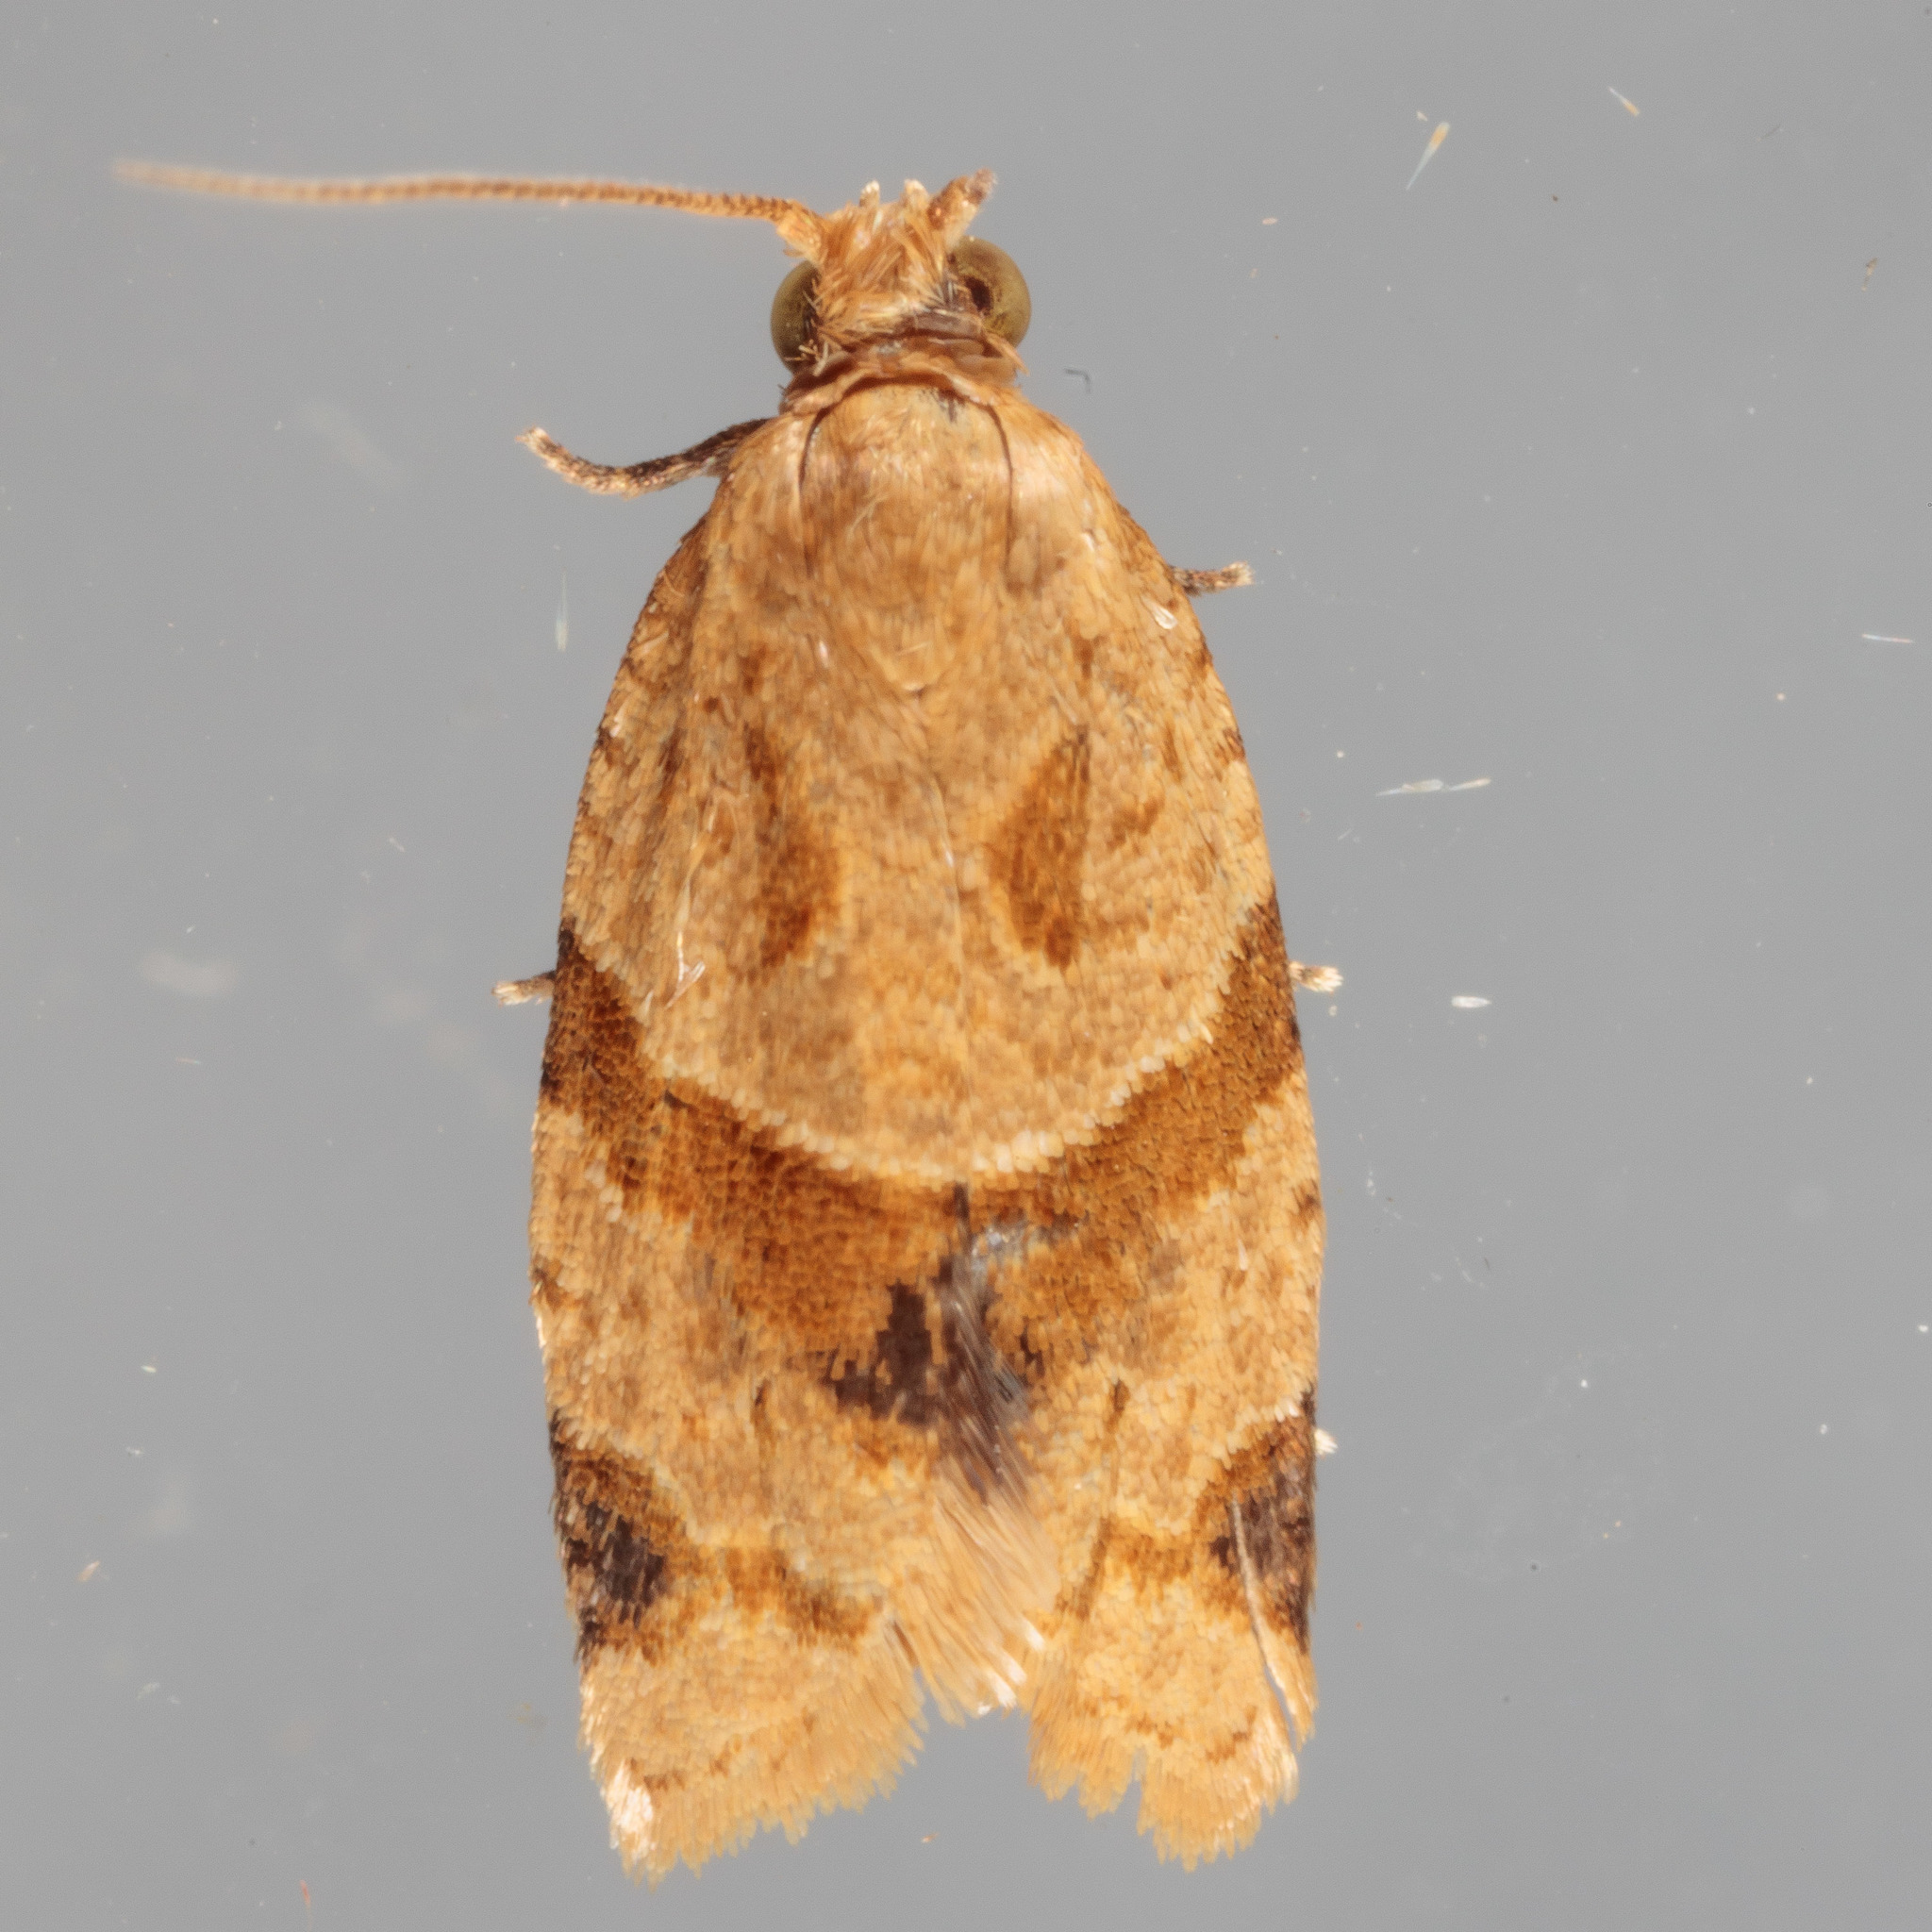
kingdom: Animalia
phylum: Arthropoda
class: Insecta
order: Lepidoptera
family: Tortricidae
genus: Clepsis
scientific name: Clepsis peritana
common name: Garden tortrix
